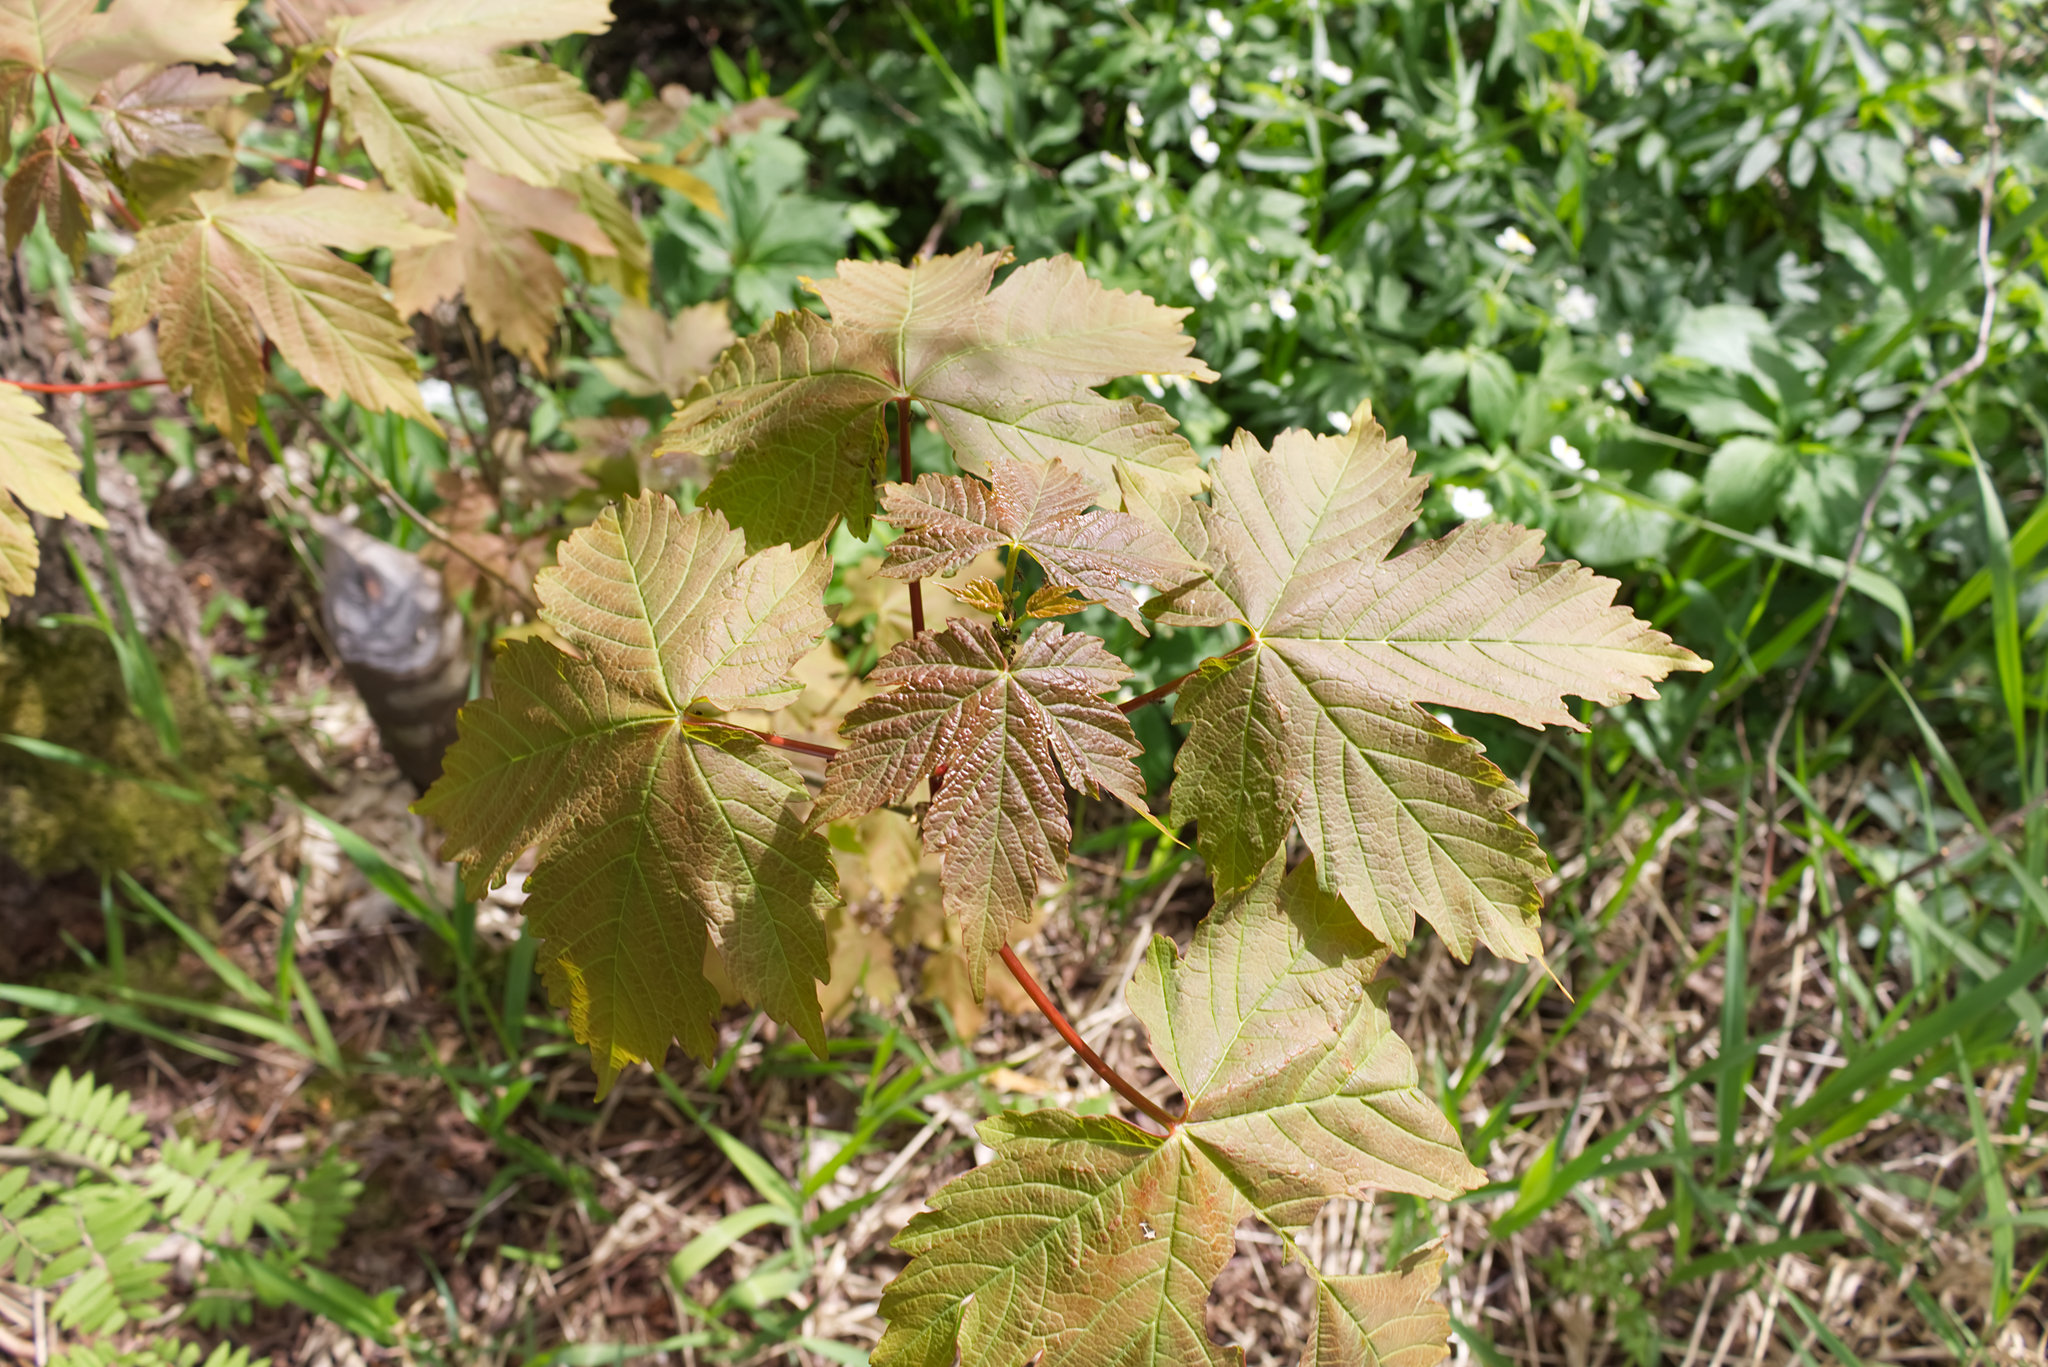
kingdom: Plantae
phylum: Tracheophyta
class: Magnoliopsida
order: Sapindales
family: Sapindaceae
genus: Acer
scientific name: Acer pseudoplatanus
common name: Sycamore
